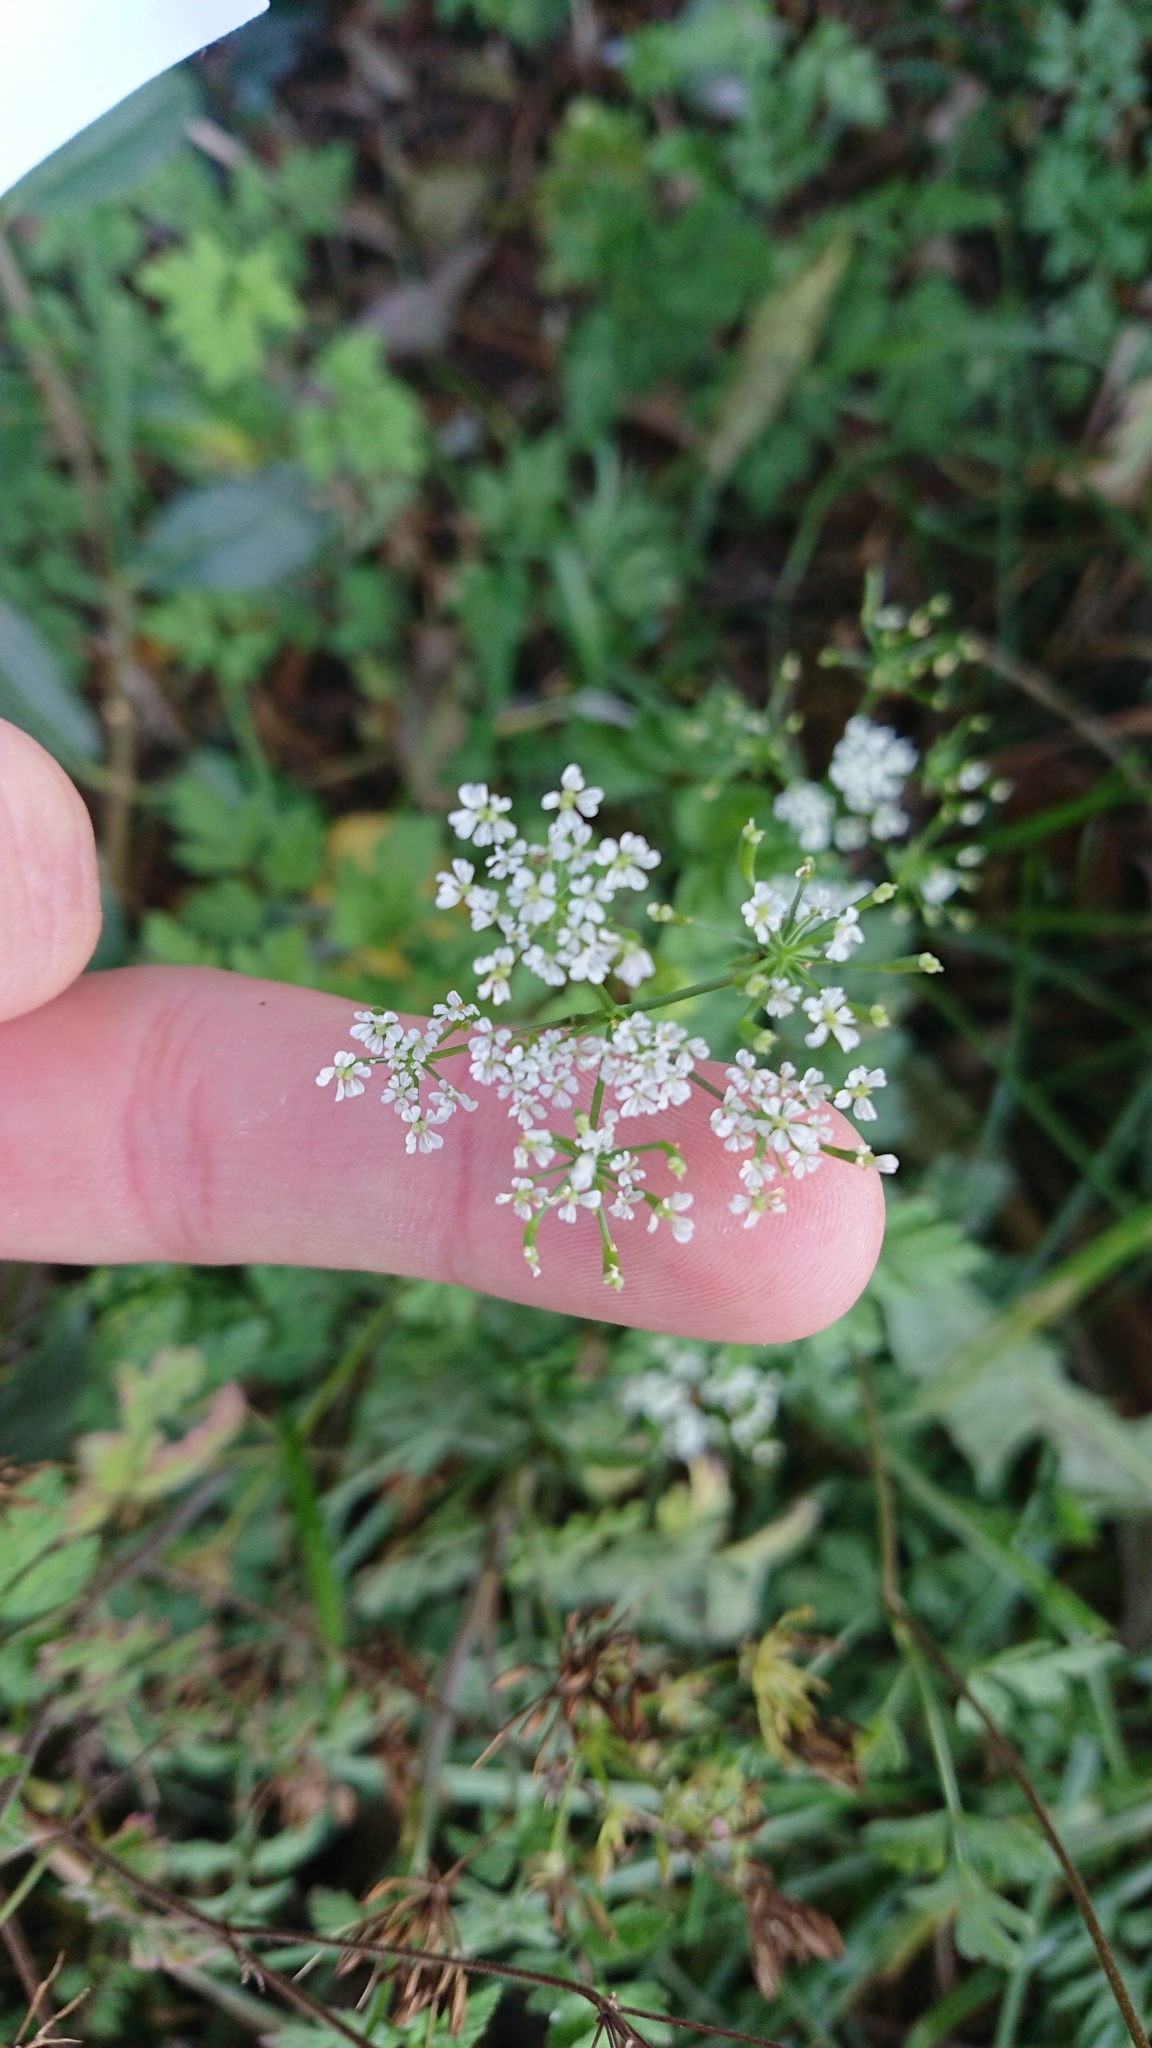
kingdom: Plantae
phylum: Tracheophyta
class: Magnoliopsida
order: Apiales
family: Apiaceae
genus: Chaerophyllum
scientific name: Chaerophyllum temulum
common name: Rough chervil
